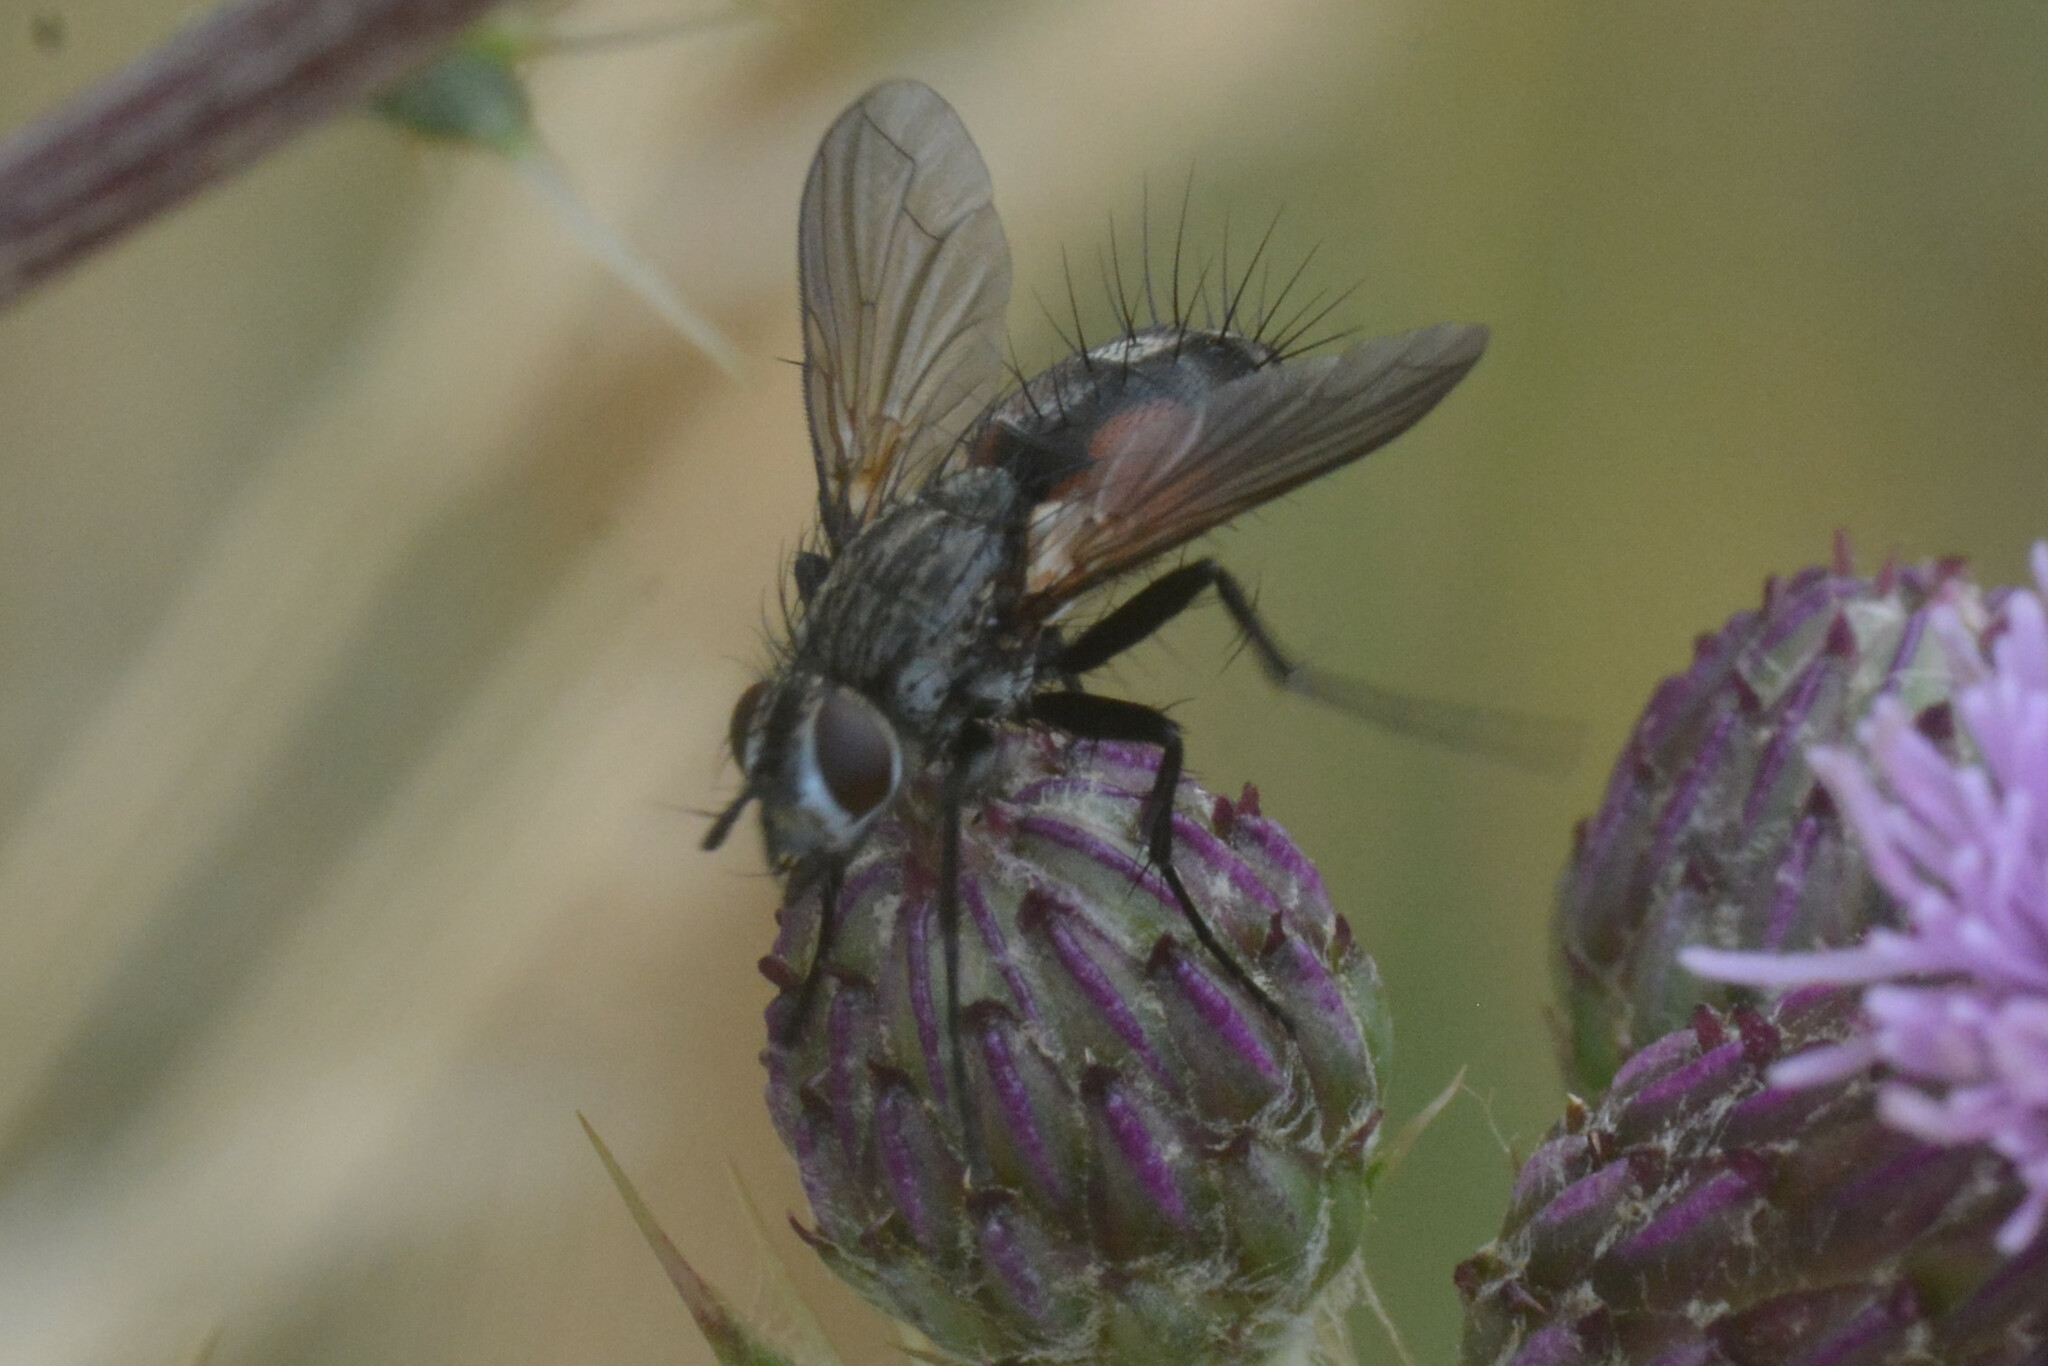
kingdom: Animalia
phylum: Arthropoda
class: Insecta
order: Diptera
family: Tachinidae
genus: Eriothrix
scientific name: Eriothrix rufomaculatus
